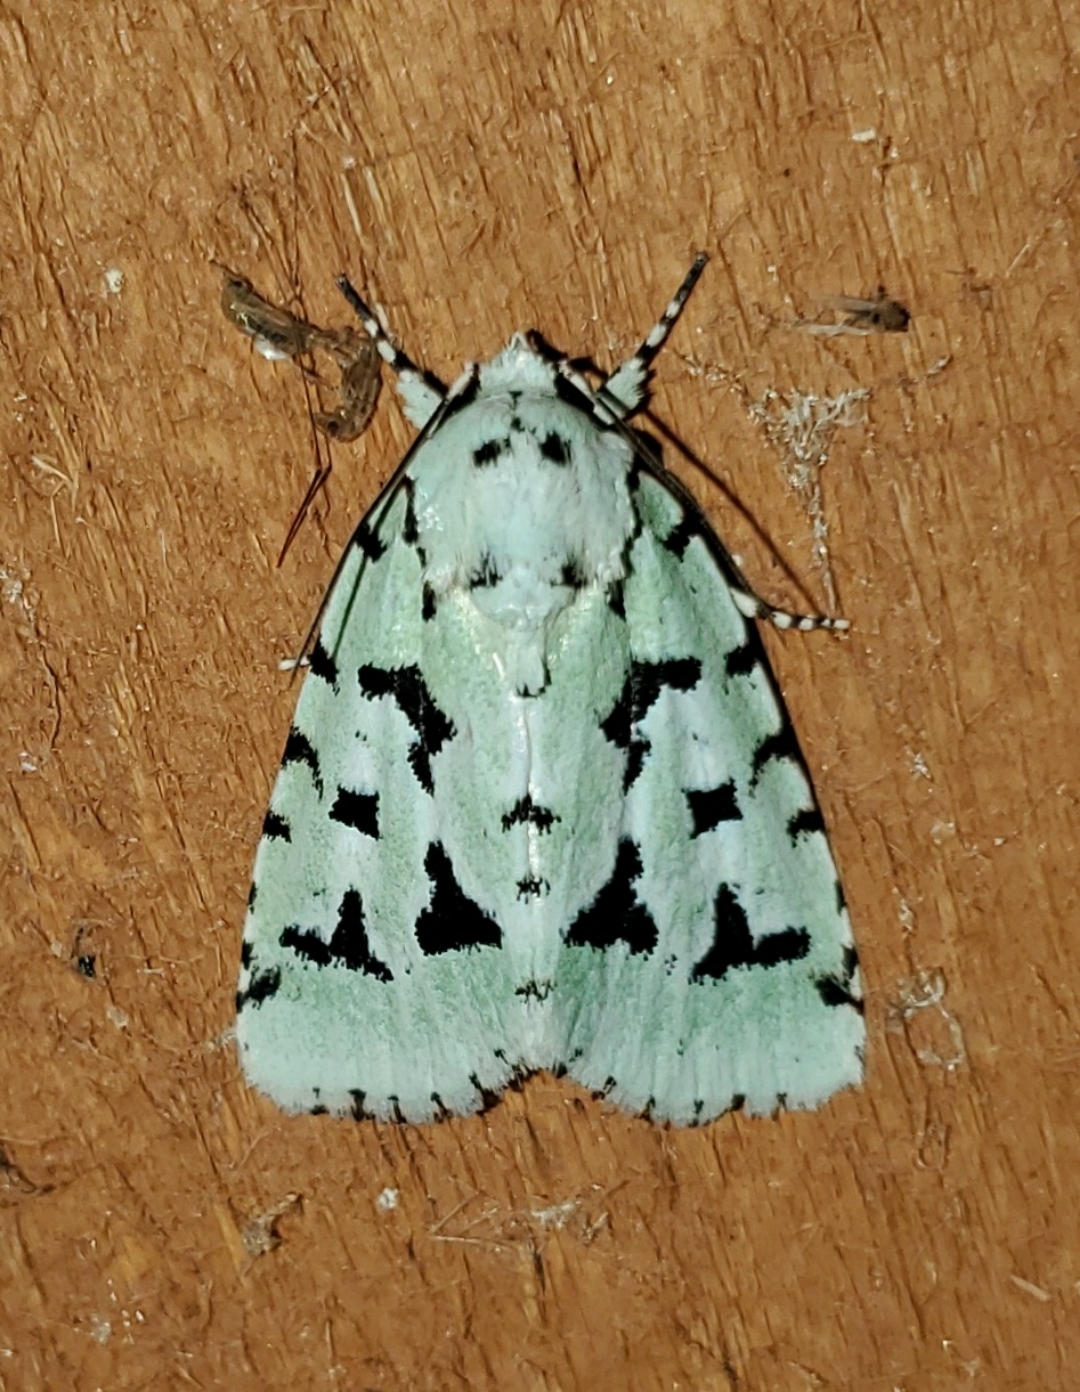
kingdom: Animalia
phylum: Arthropoda
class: Insecta
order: Lepidoptera
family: Noctuidae
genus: Acronicta
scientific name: Acronicta fallax
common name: Green marvel
